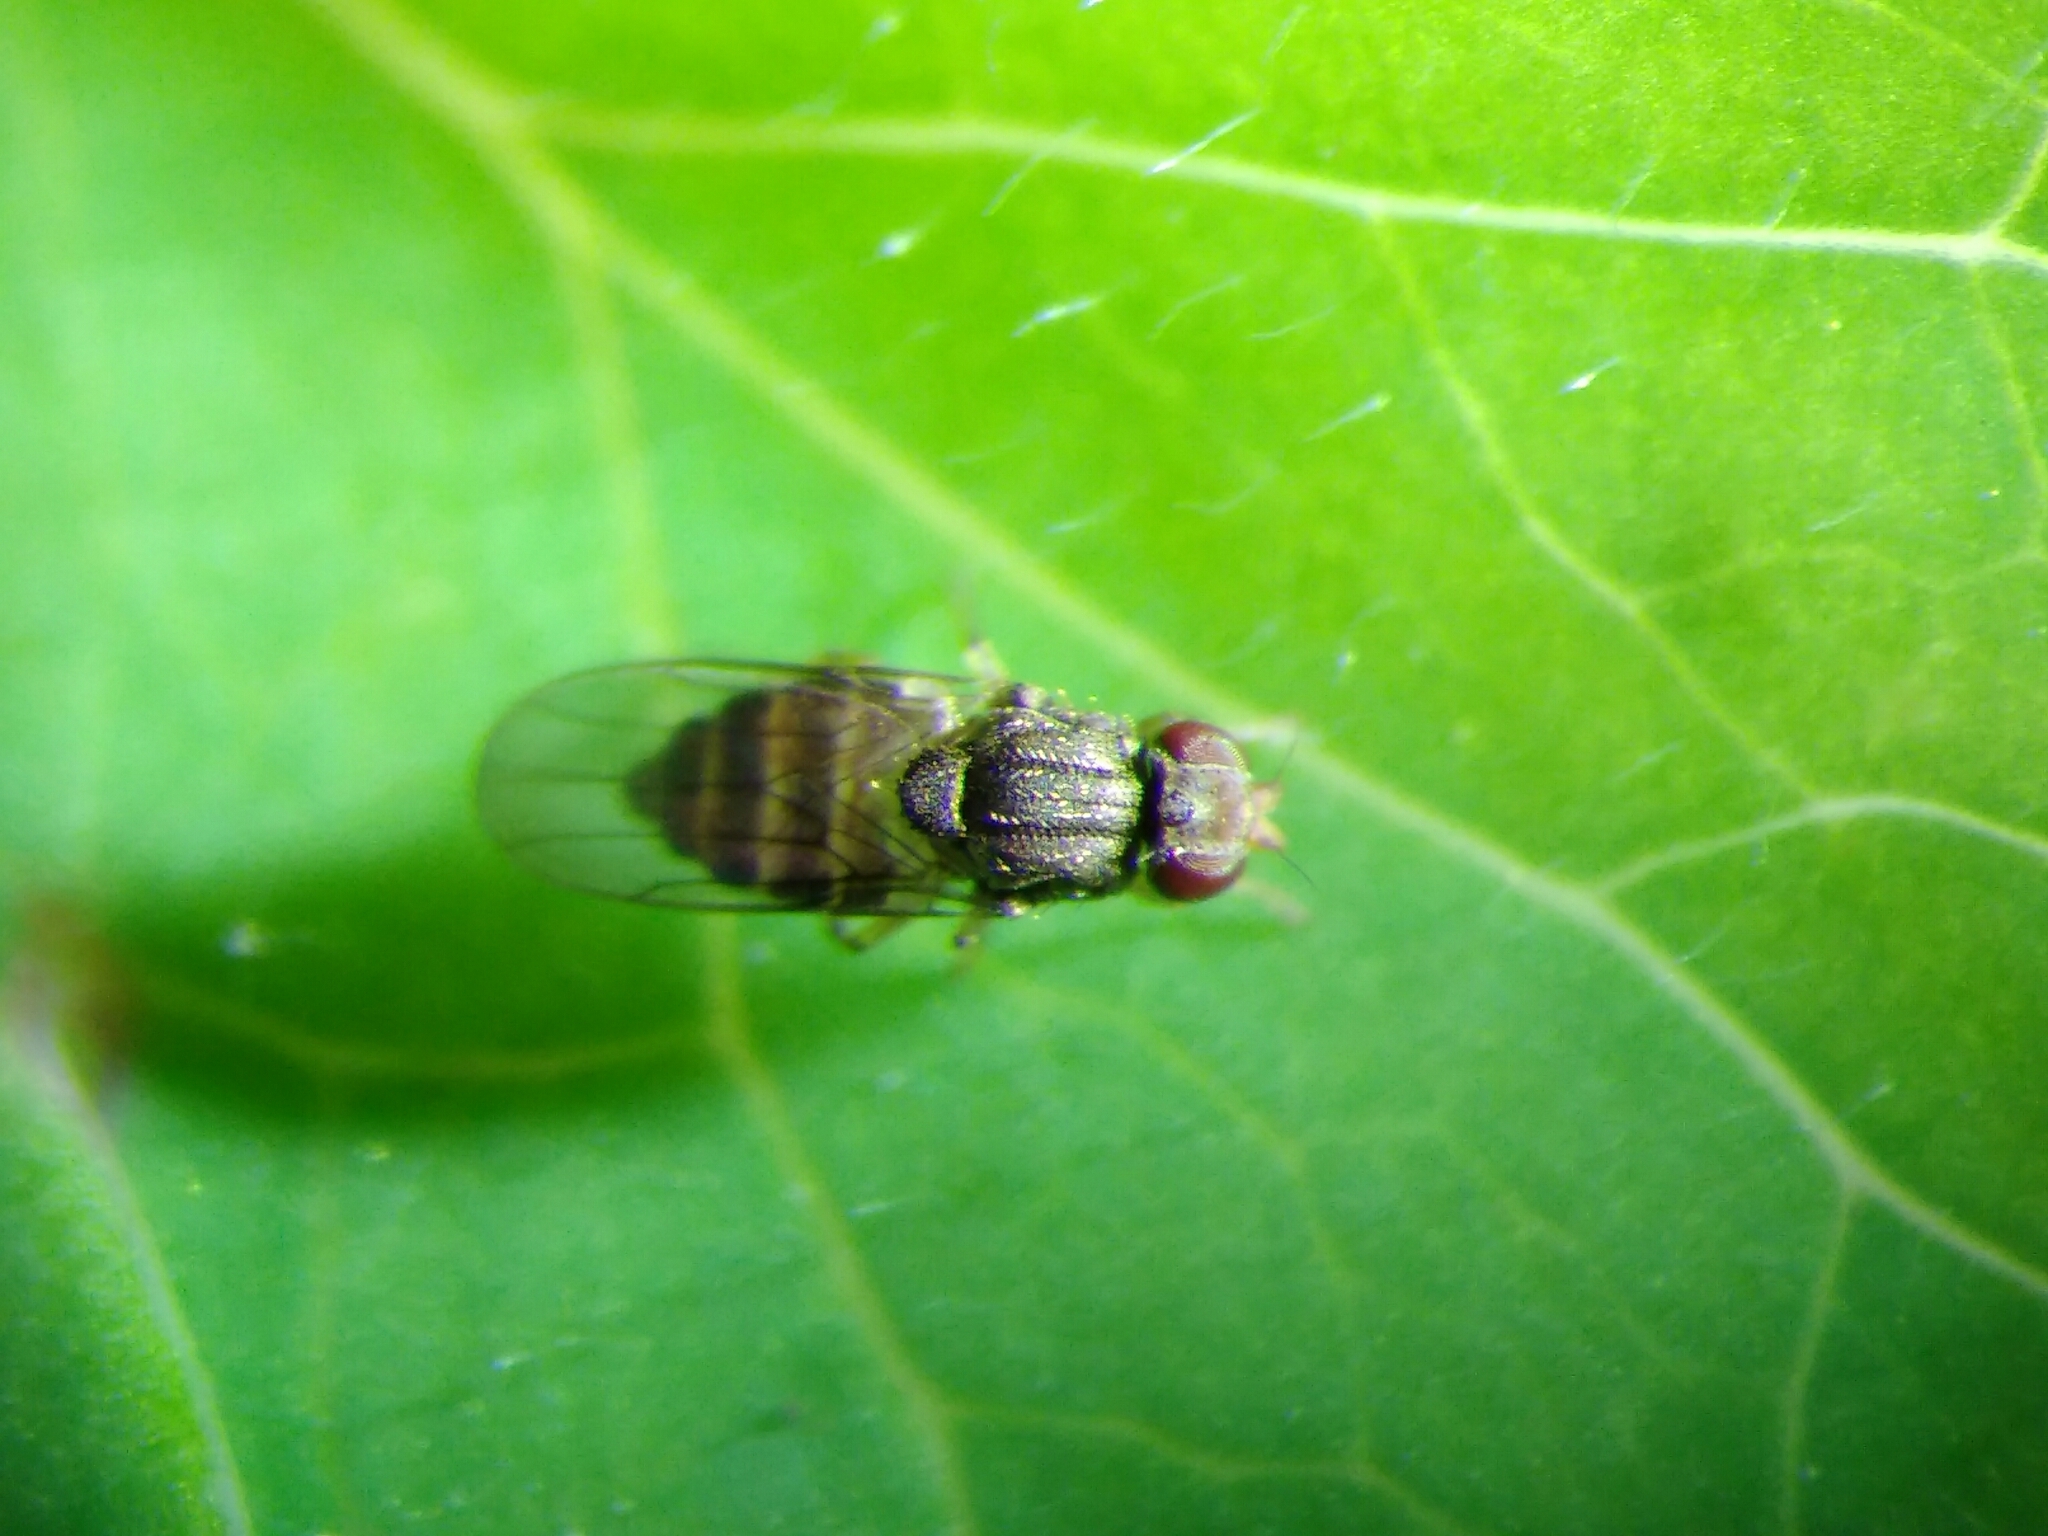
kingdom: Animalia
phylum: Arthropoda
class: Insecta
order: Diptera
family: Chloropidae
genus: Tricimba
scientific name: Tricimba
